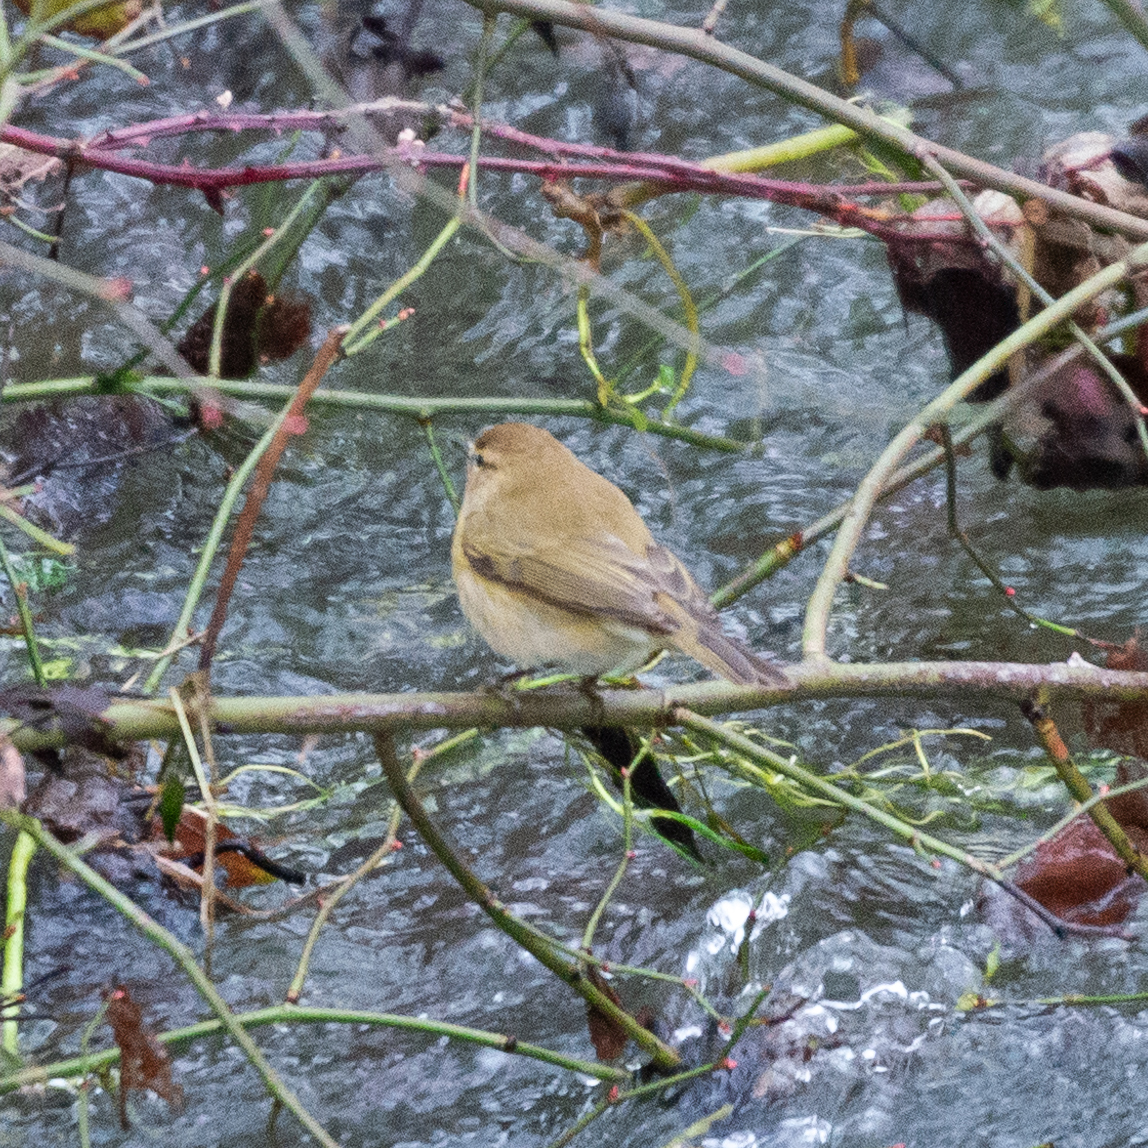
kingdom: Animalia
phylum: Chordata
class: Aves
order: Passeriformes
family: Phylloscopidae
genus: Phylloscopus
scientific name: Phylloscopus collybita
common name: Common chiffchaff
